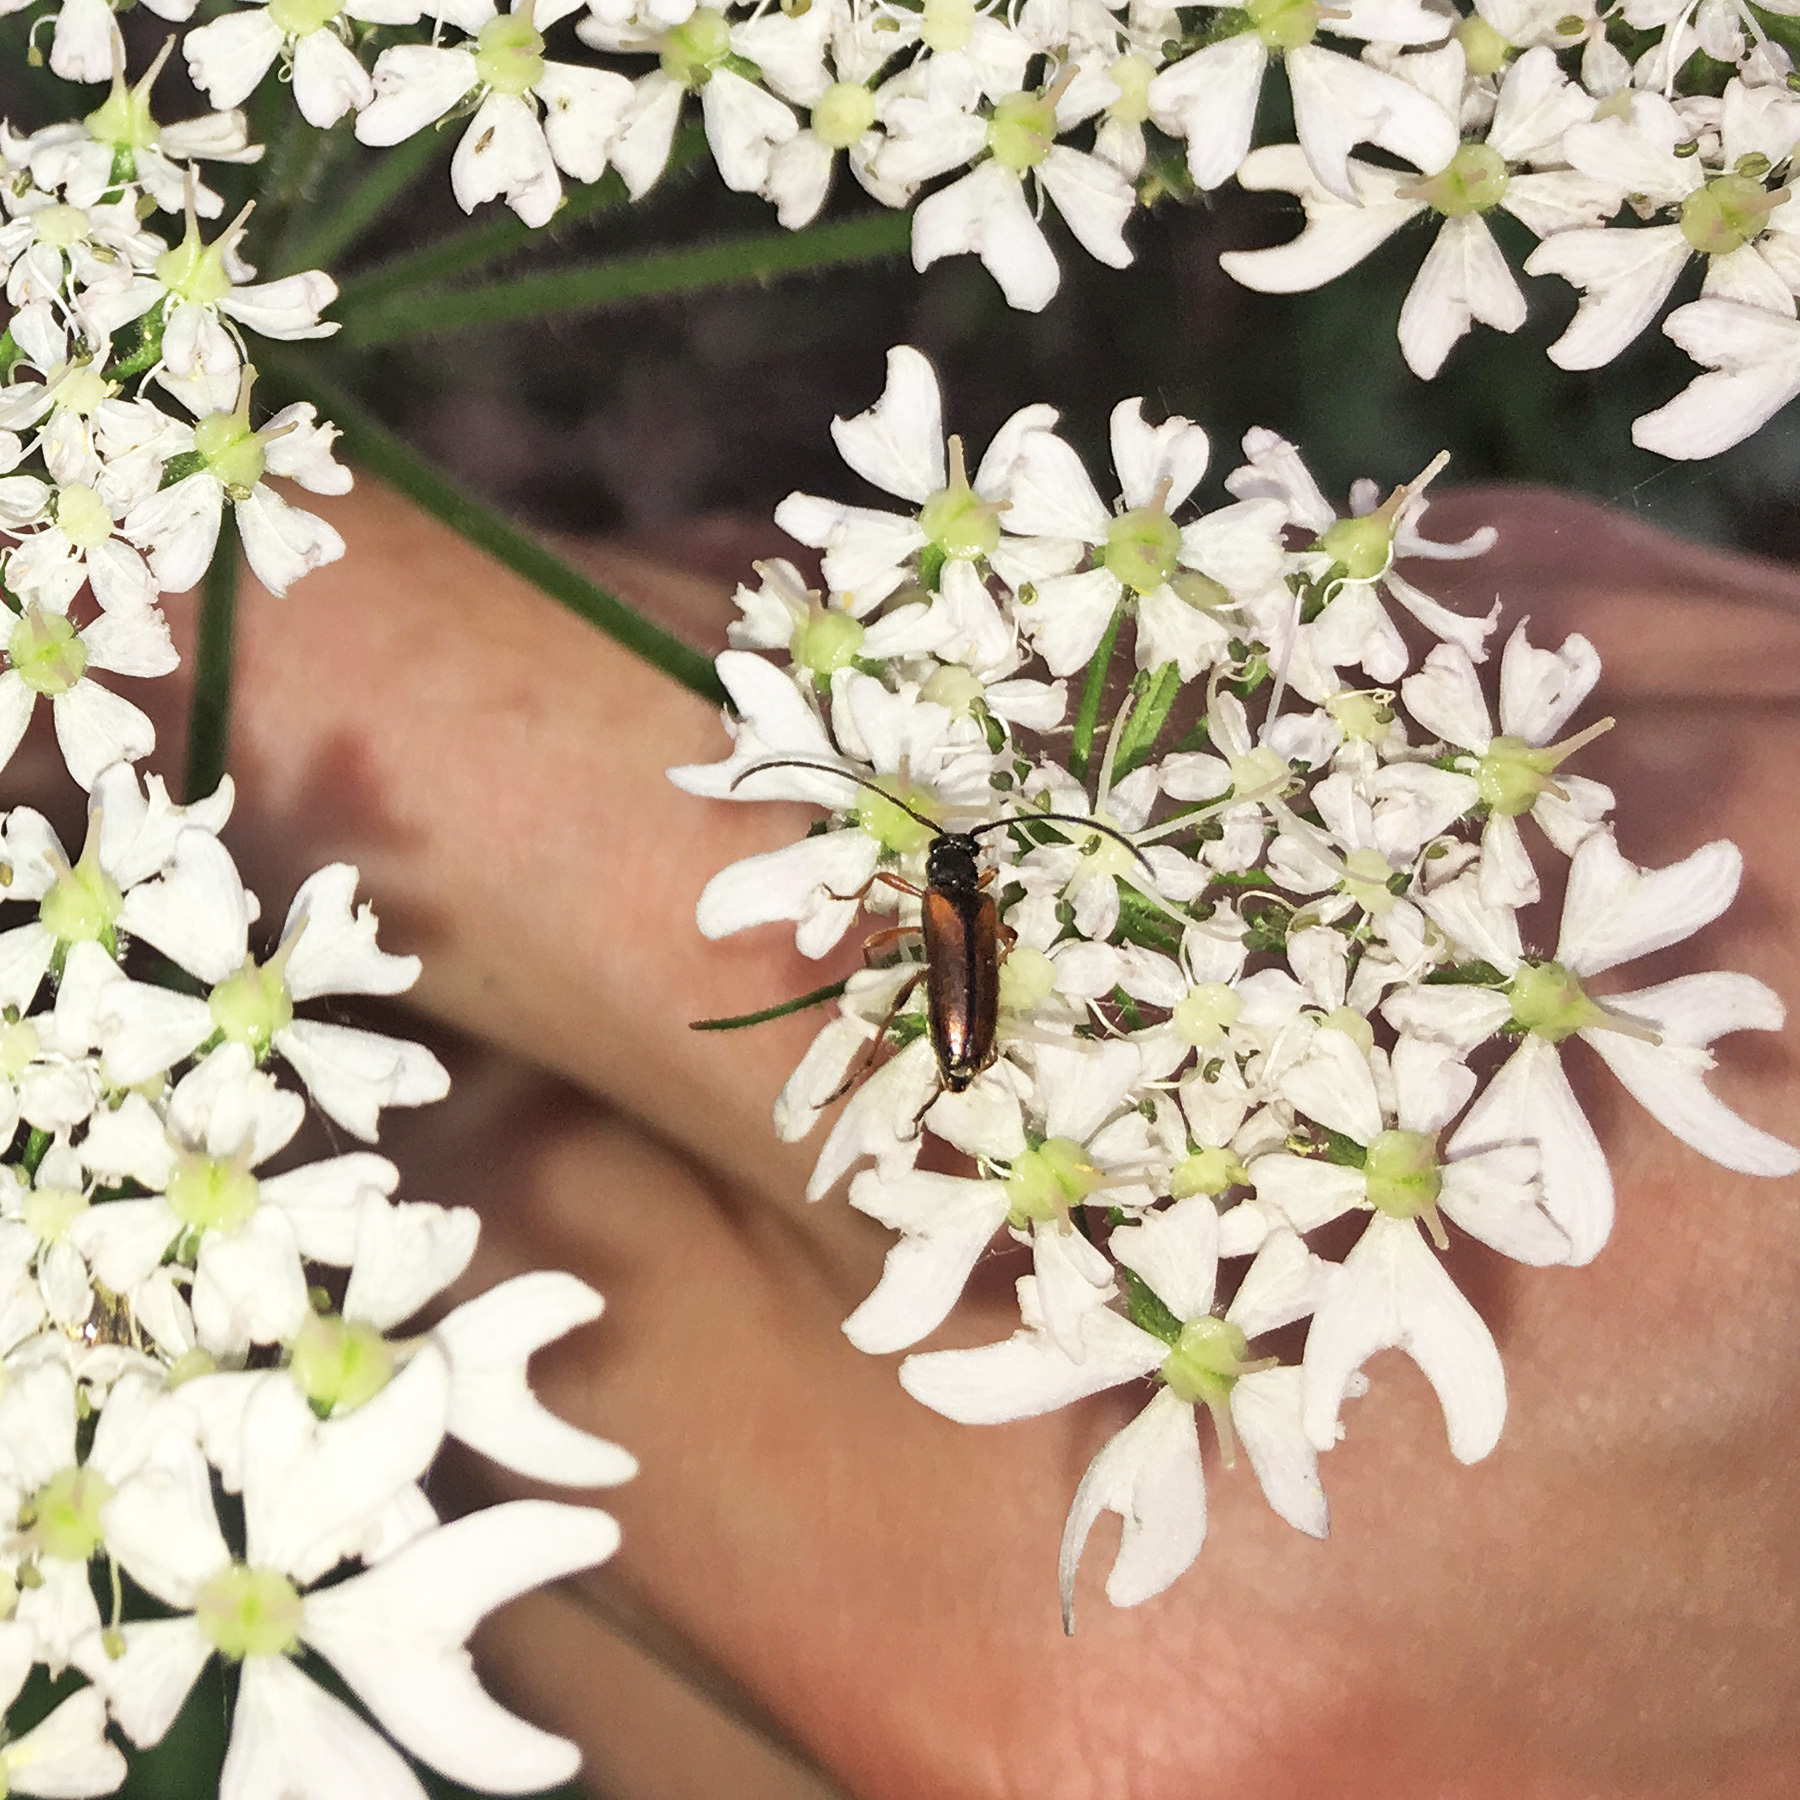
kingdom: Animalia
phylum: Arthropoda
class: Insecta
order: Coleoptera
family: Cerambycidae
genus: Alosterna
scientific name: Alosterna tabacicolor
